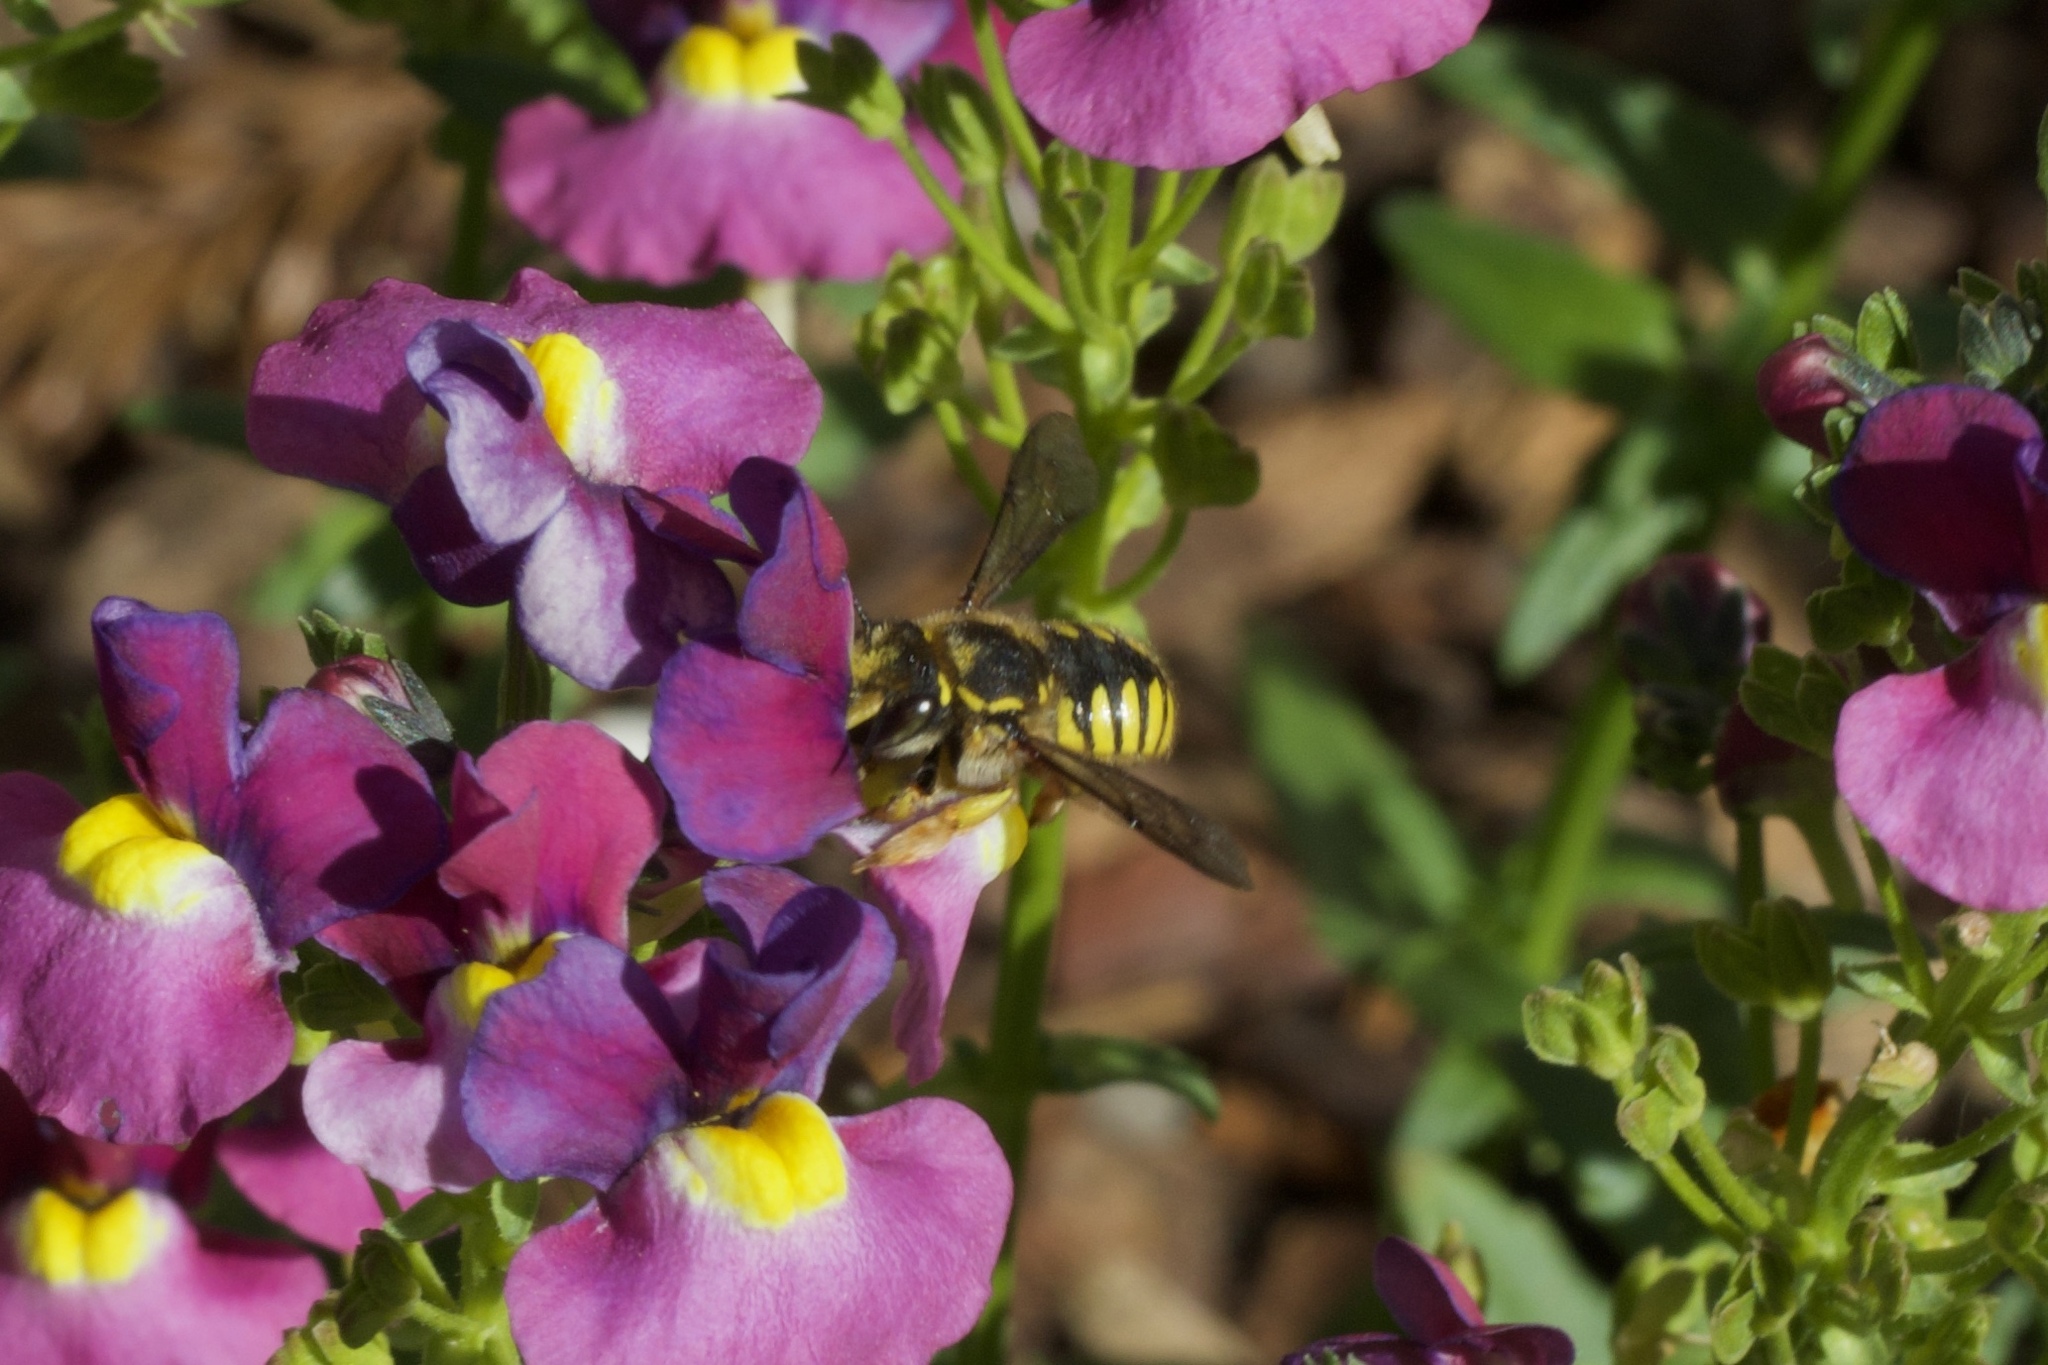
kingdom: Animalia
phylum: Arthropoda
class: Insecta
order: Hymenoptera
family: Megachilidae
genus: Anthidium
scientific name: Anthidium manicatum
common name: Wool carder bee
